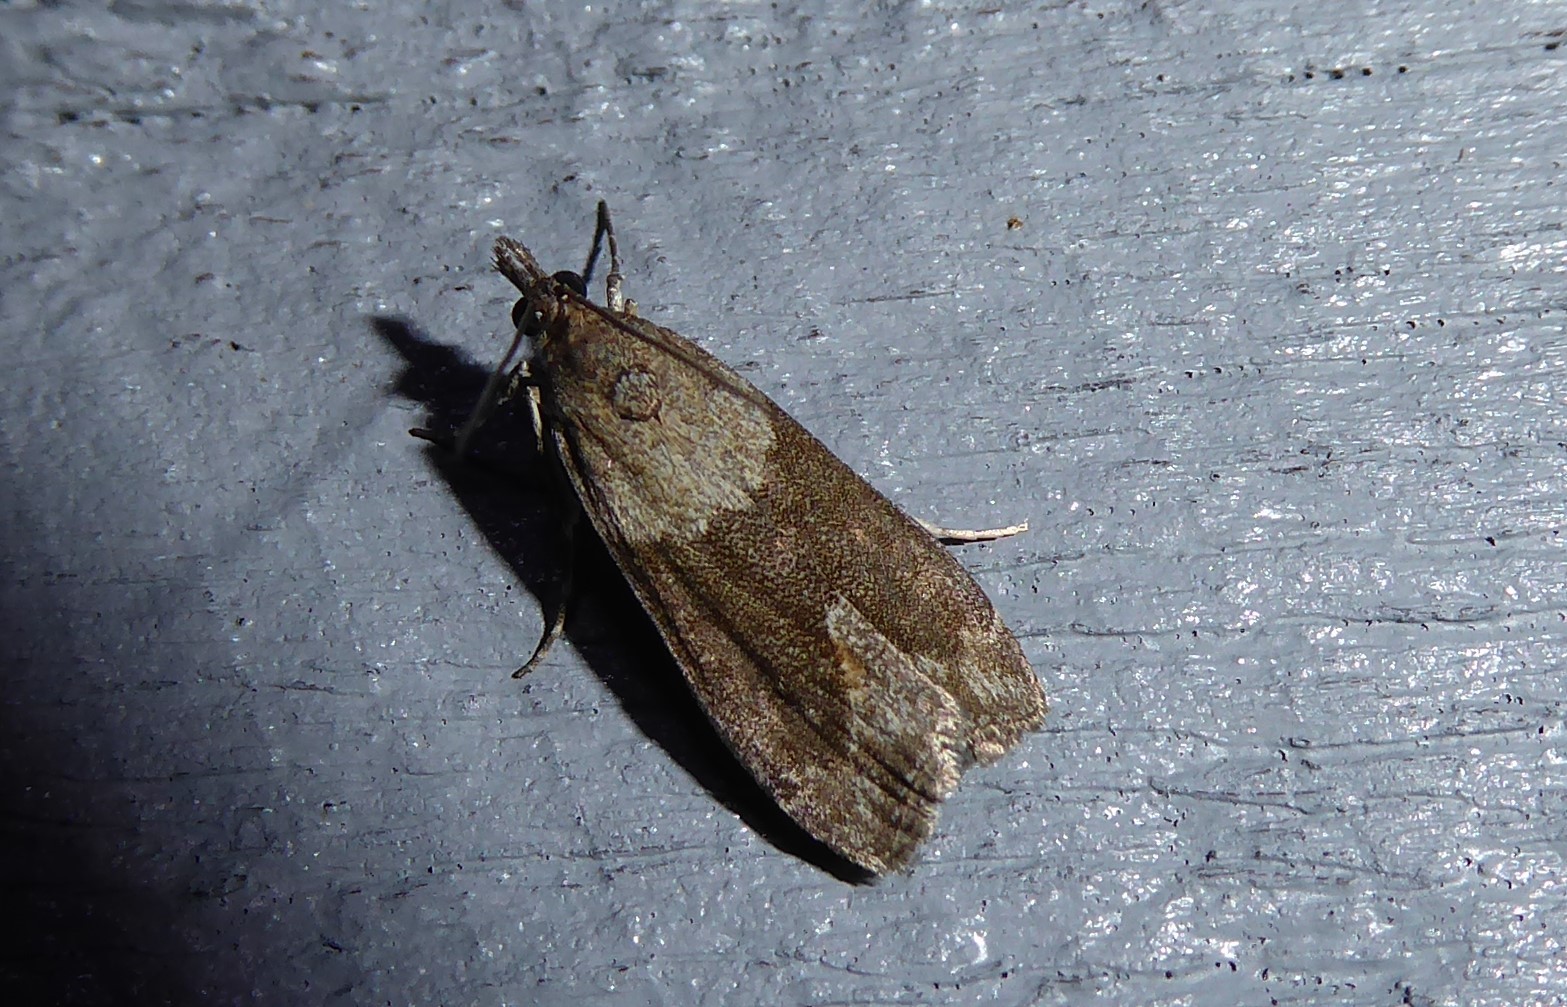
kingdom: Animalia
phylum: Arthropoda
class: Insecta
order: Lepidoptera
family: Crambidae
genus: Eudonia
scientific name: Eudonia submarginalis
